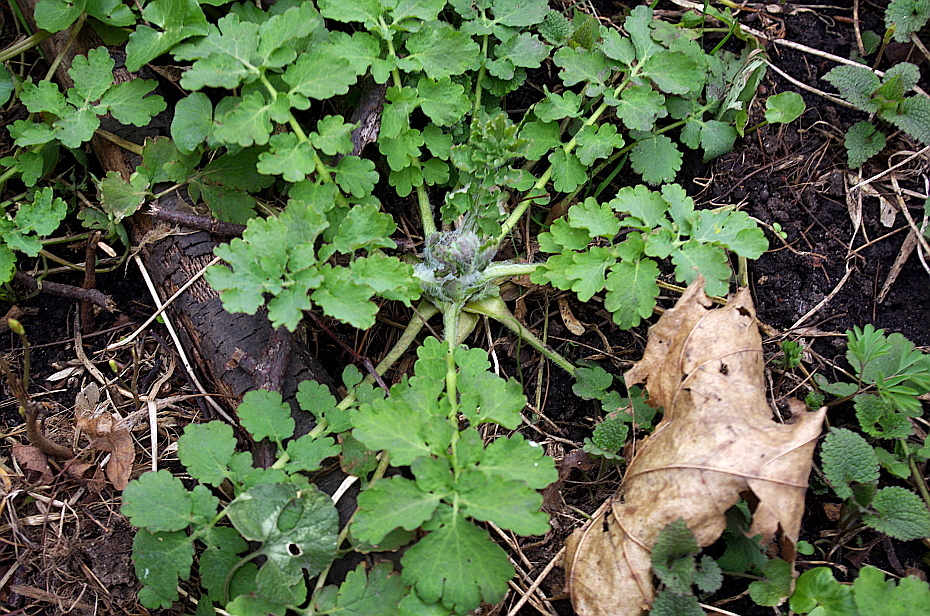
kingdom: Plantae
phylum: Tracheophyta
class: Magnoliopsida
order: Ranunculales
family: Papaveraceae
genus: Chelidonium
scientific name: Chelidonium majus
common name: Greater celandine
